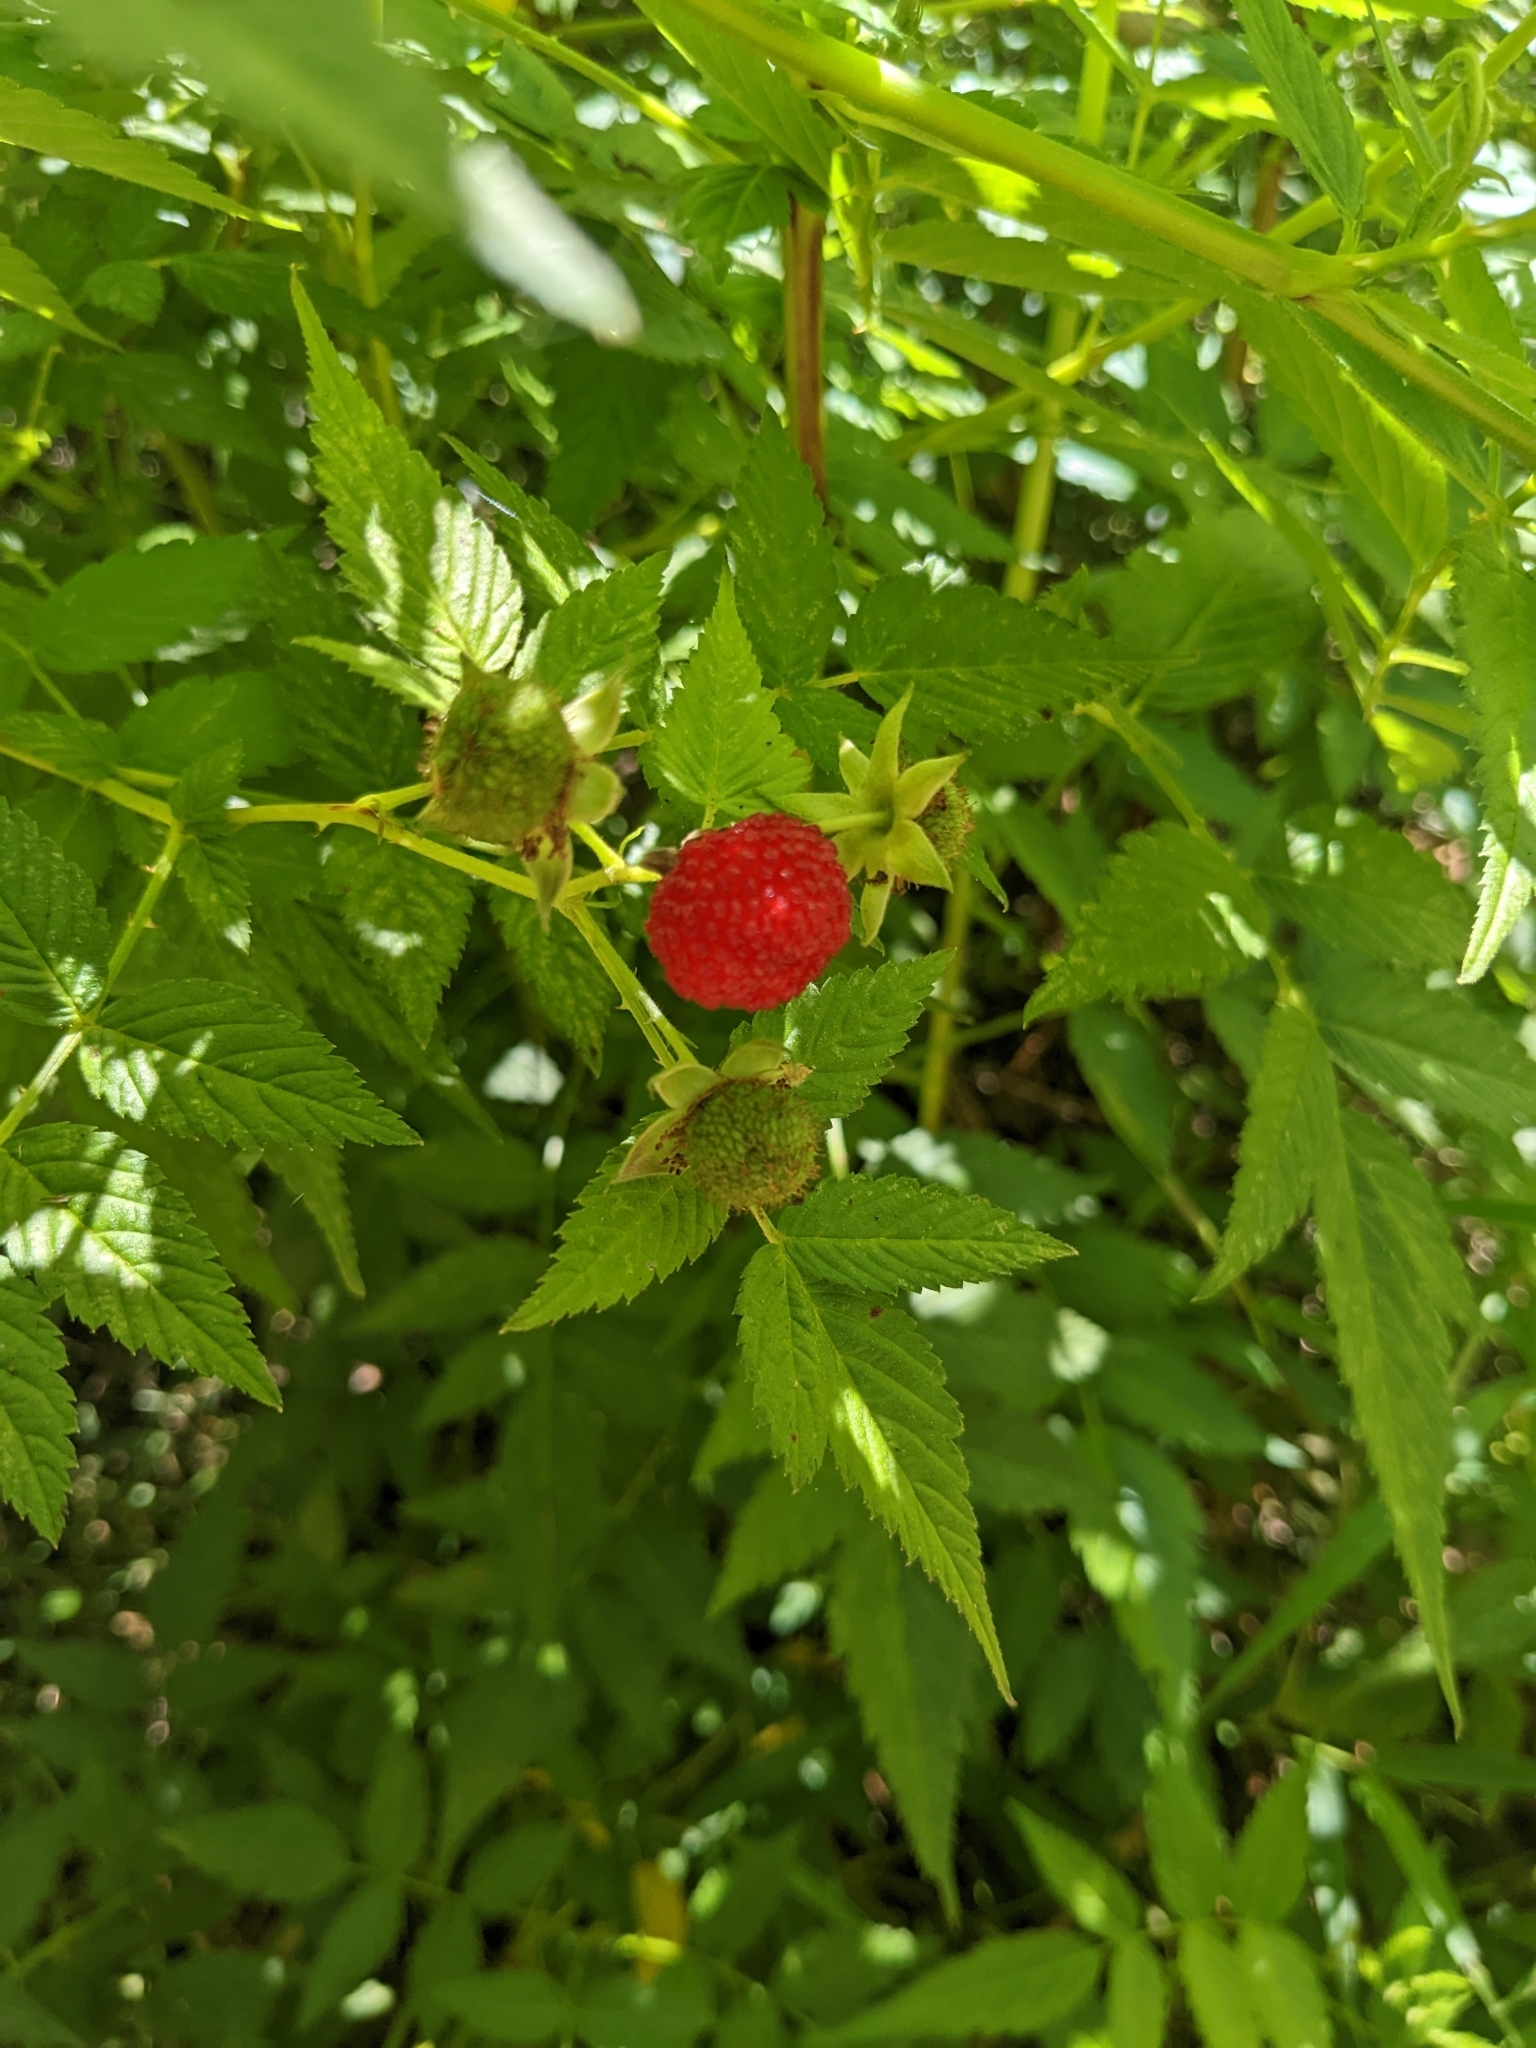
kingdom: Plantae
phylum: Tracheophyta
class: Magnoliopsida
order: Rosales
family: Rosaceae
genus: Rubus
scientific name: Rubus rosifolius
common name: Roseleaf raspberry
